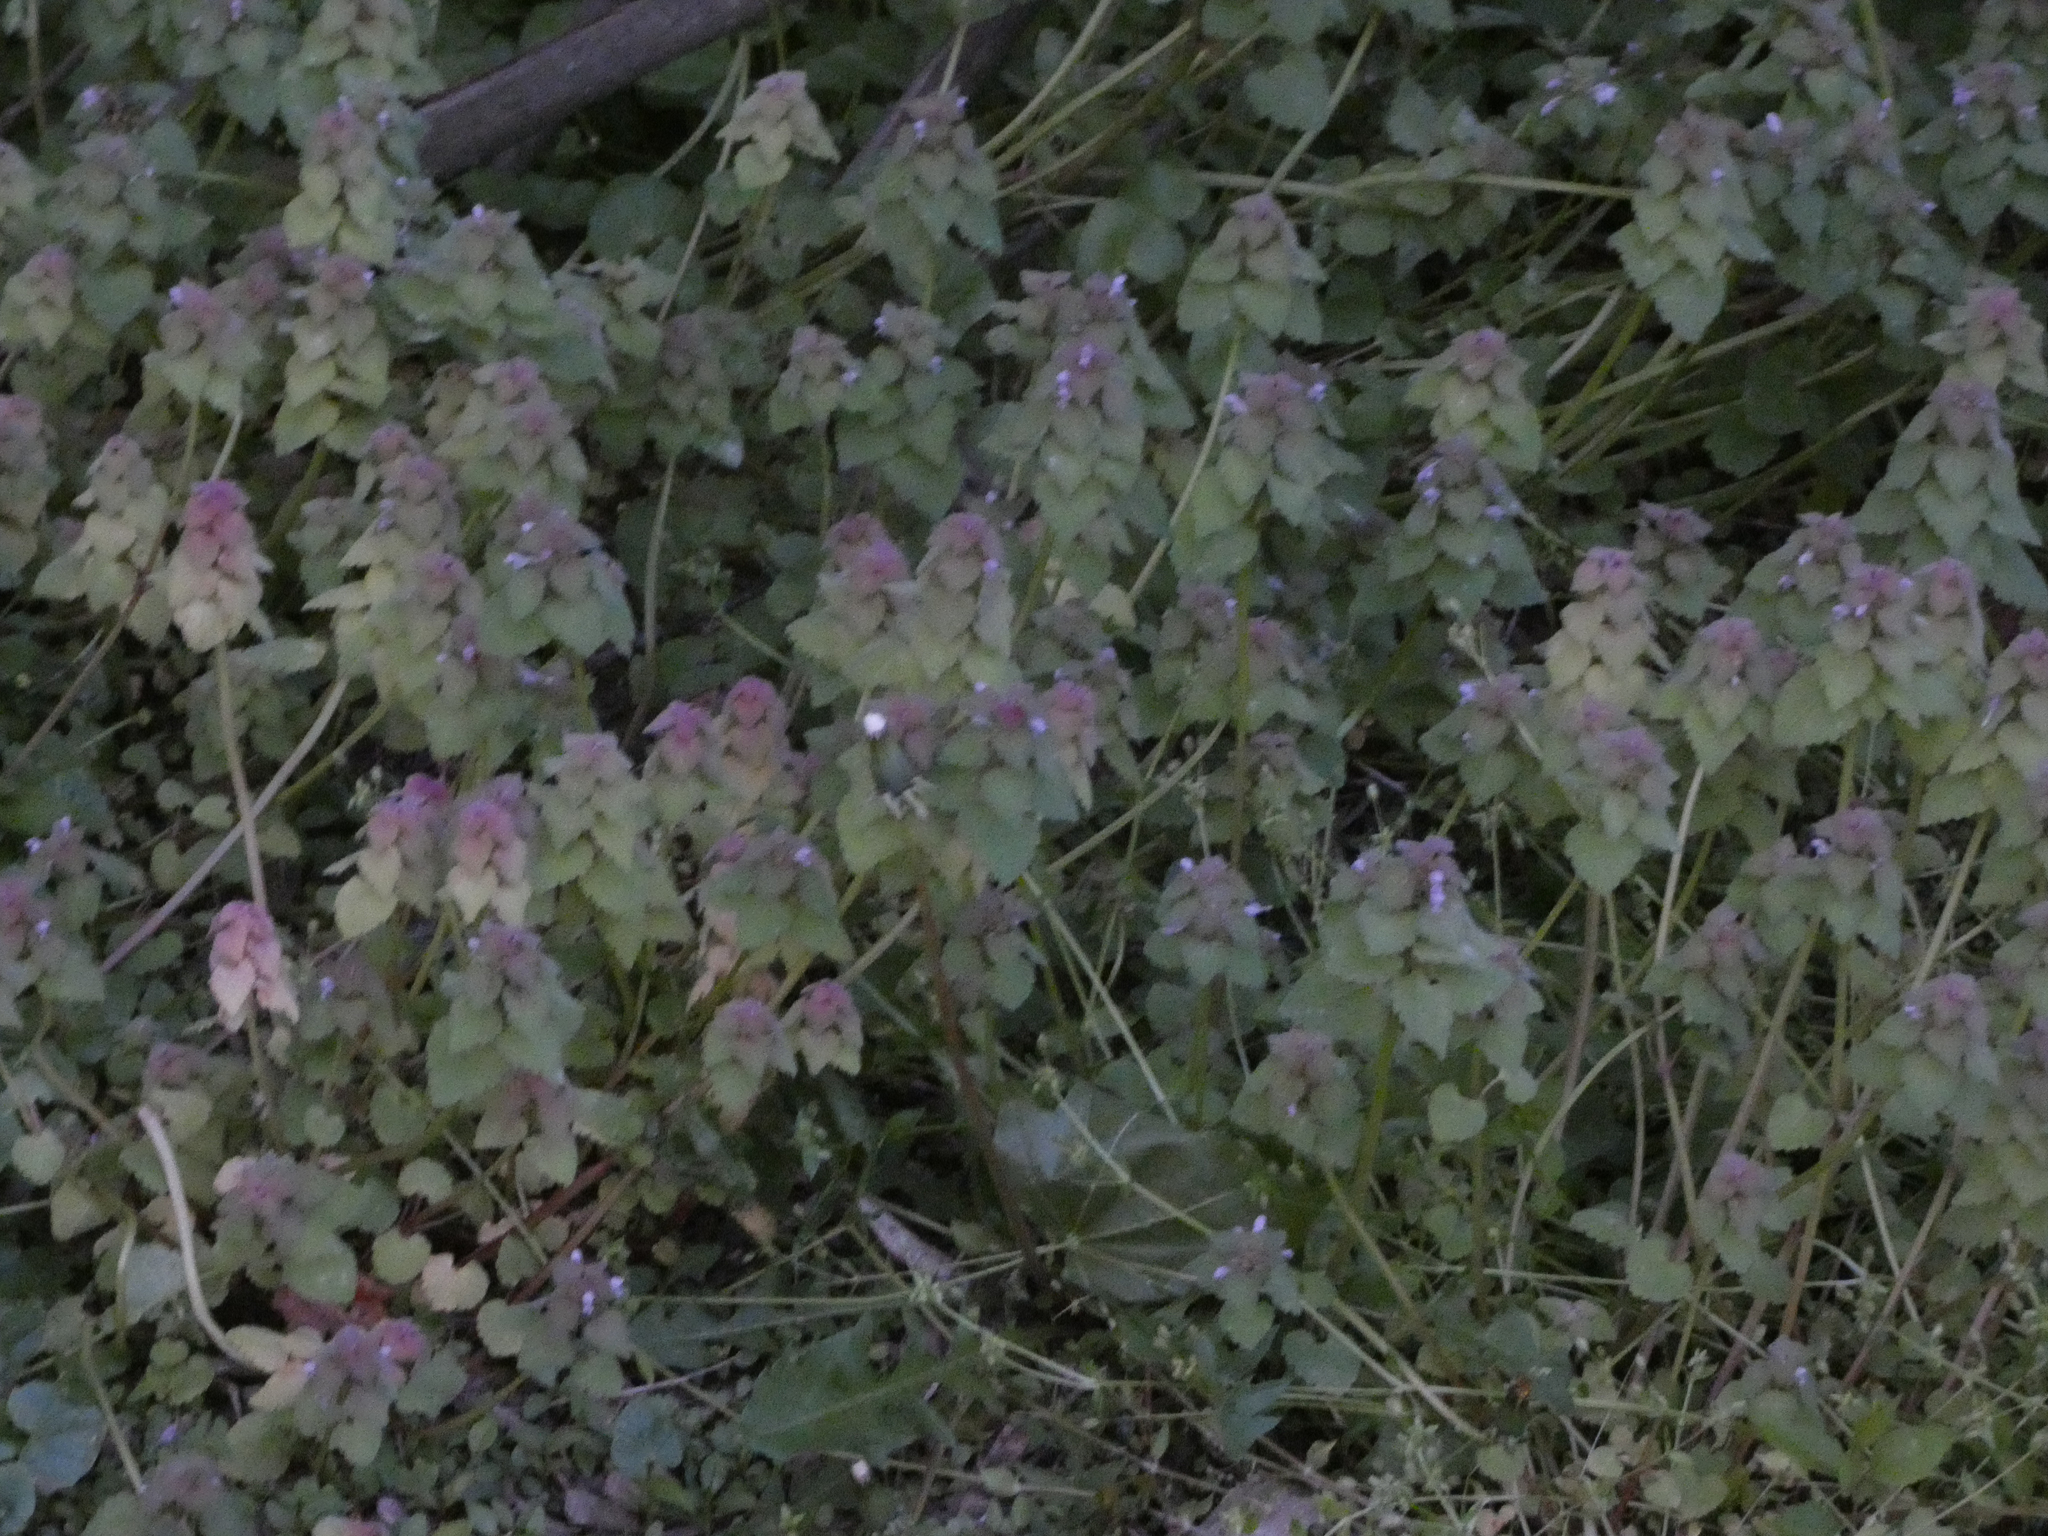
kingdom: Plantae
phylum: Tracheophyta
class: Magnoliopsida
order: Lamiales
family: Lamiaceae
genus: Lamium
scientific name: Lamium purpureum
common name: Red dead-nettle
